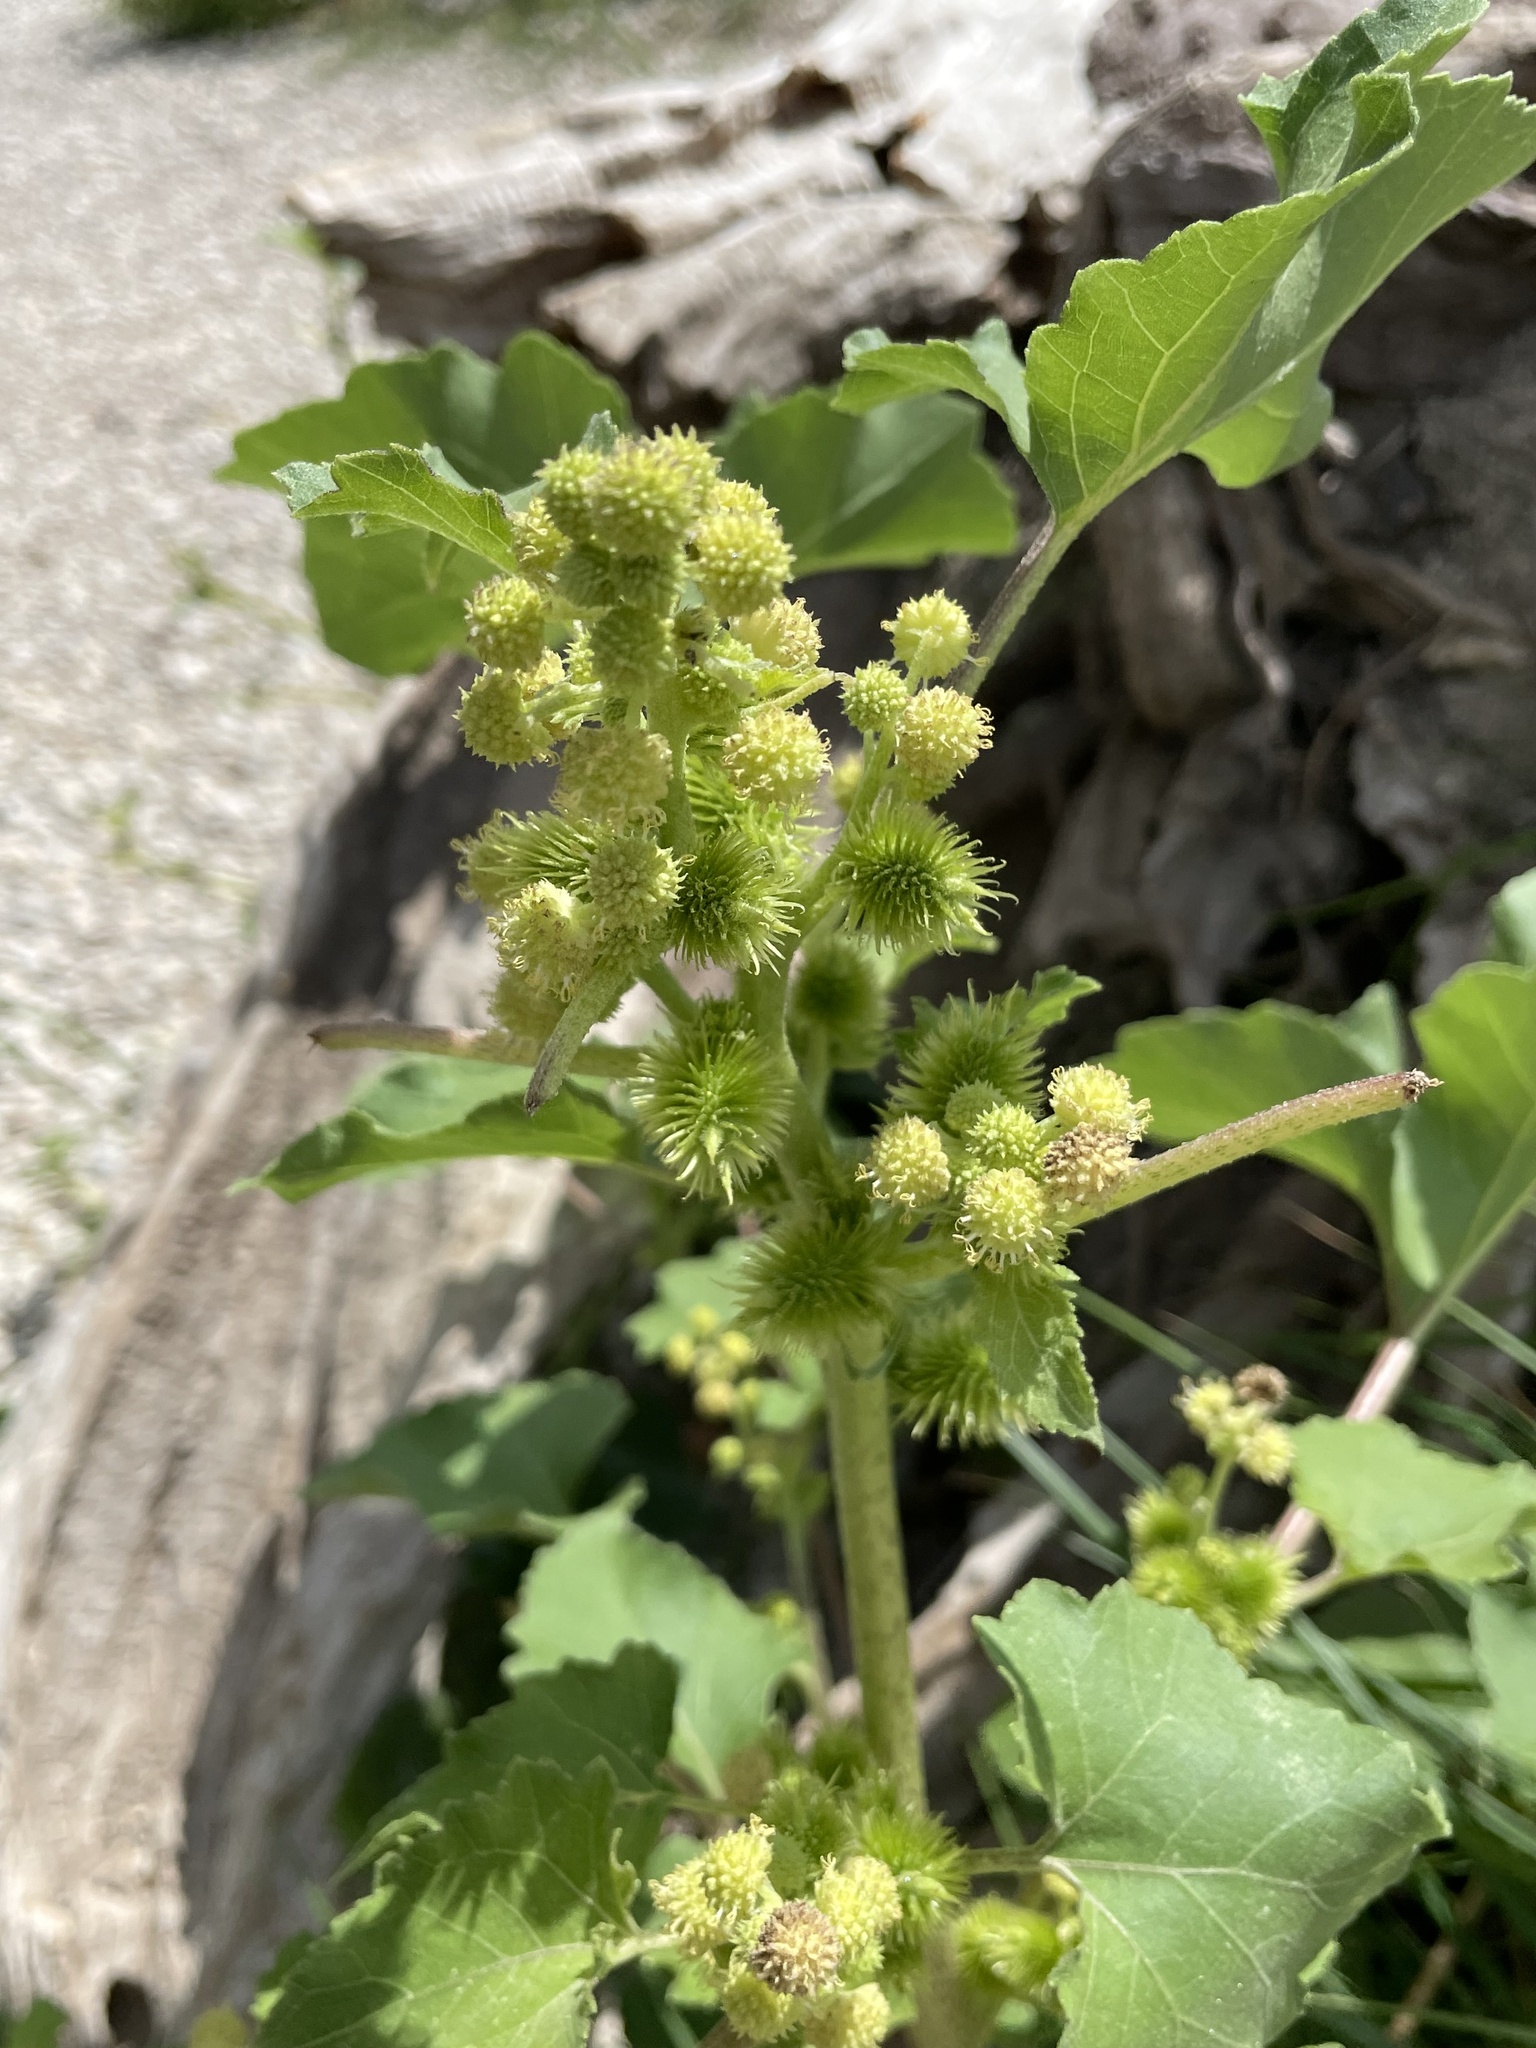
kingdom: Plantae
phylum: Tracheophyta
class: Magnoliopsida
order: Asterales
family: Asteraceae
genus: Xanthium
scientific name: Xanthium strumarium
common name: Rough cocklebur
